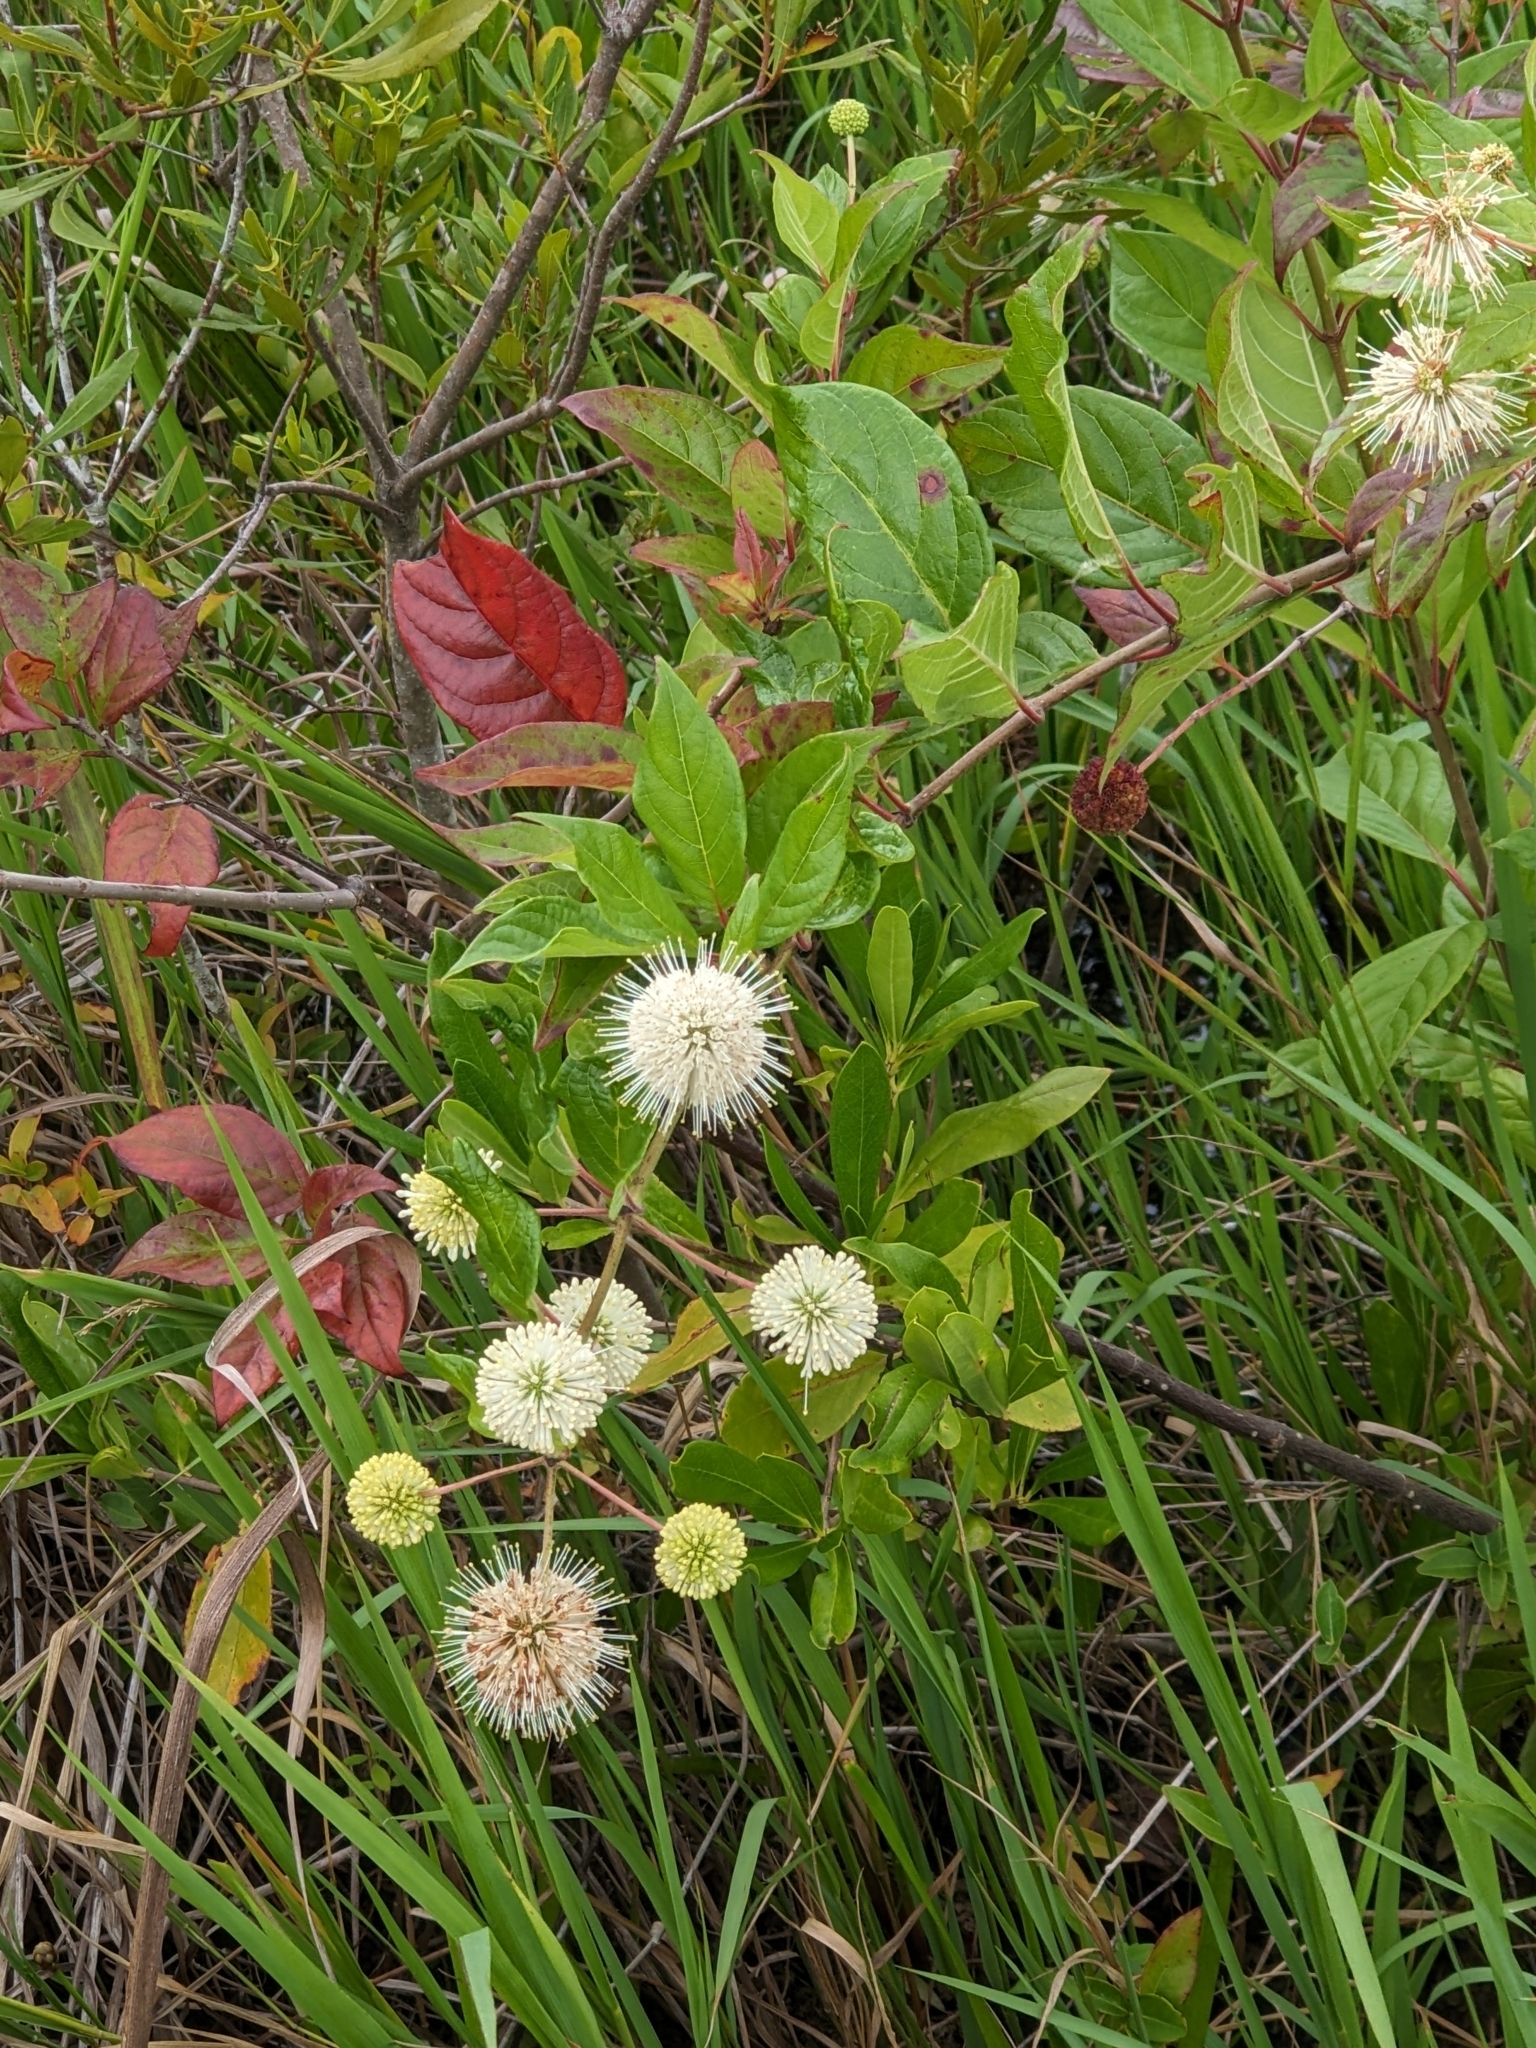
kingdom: Plantae
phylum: Tracheophyta
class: Magnoliopsida
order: Gentianales
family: Rubiaceae
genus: Cephalanthus
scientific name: Cephalanthus occidentalis
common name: Button-willow
